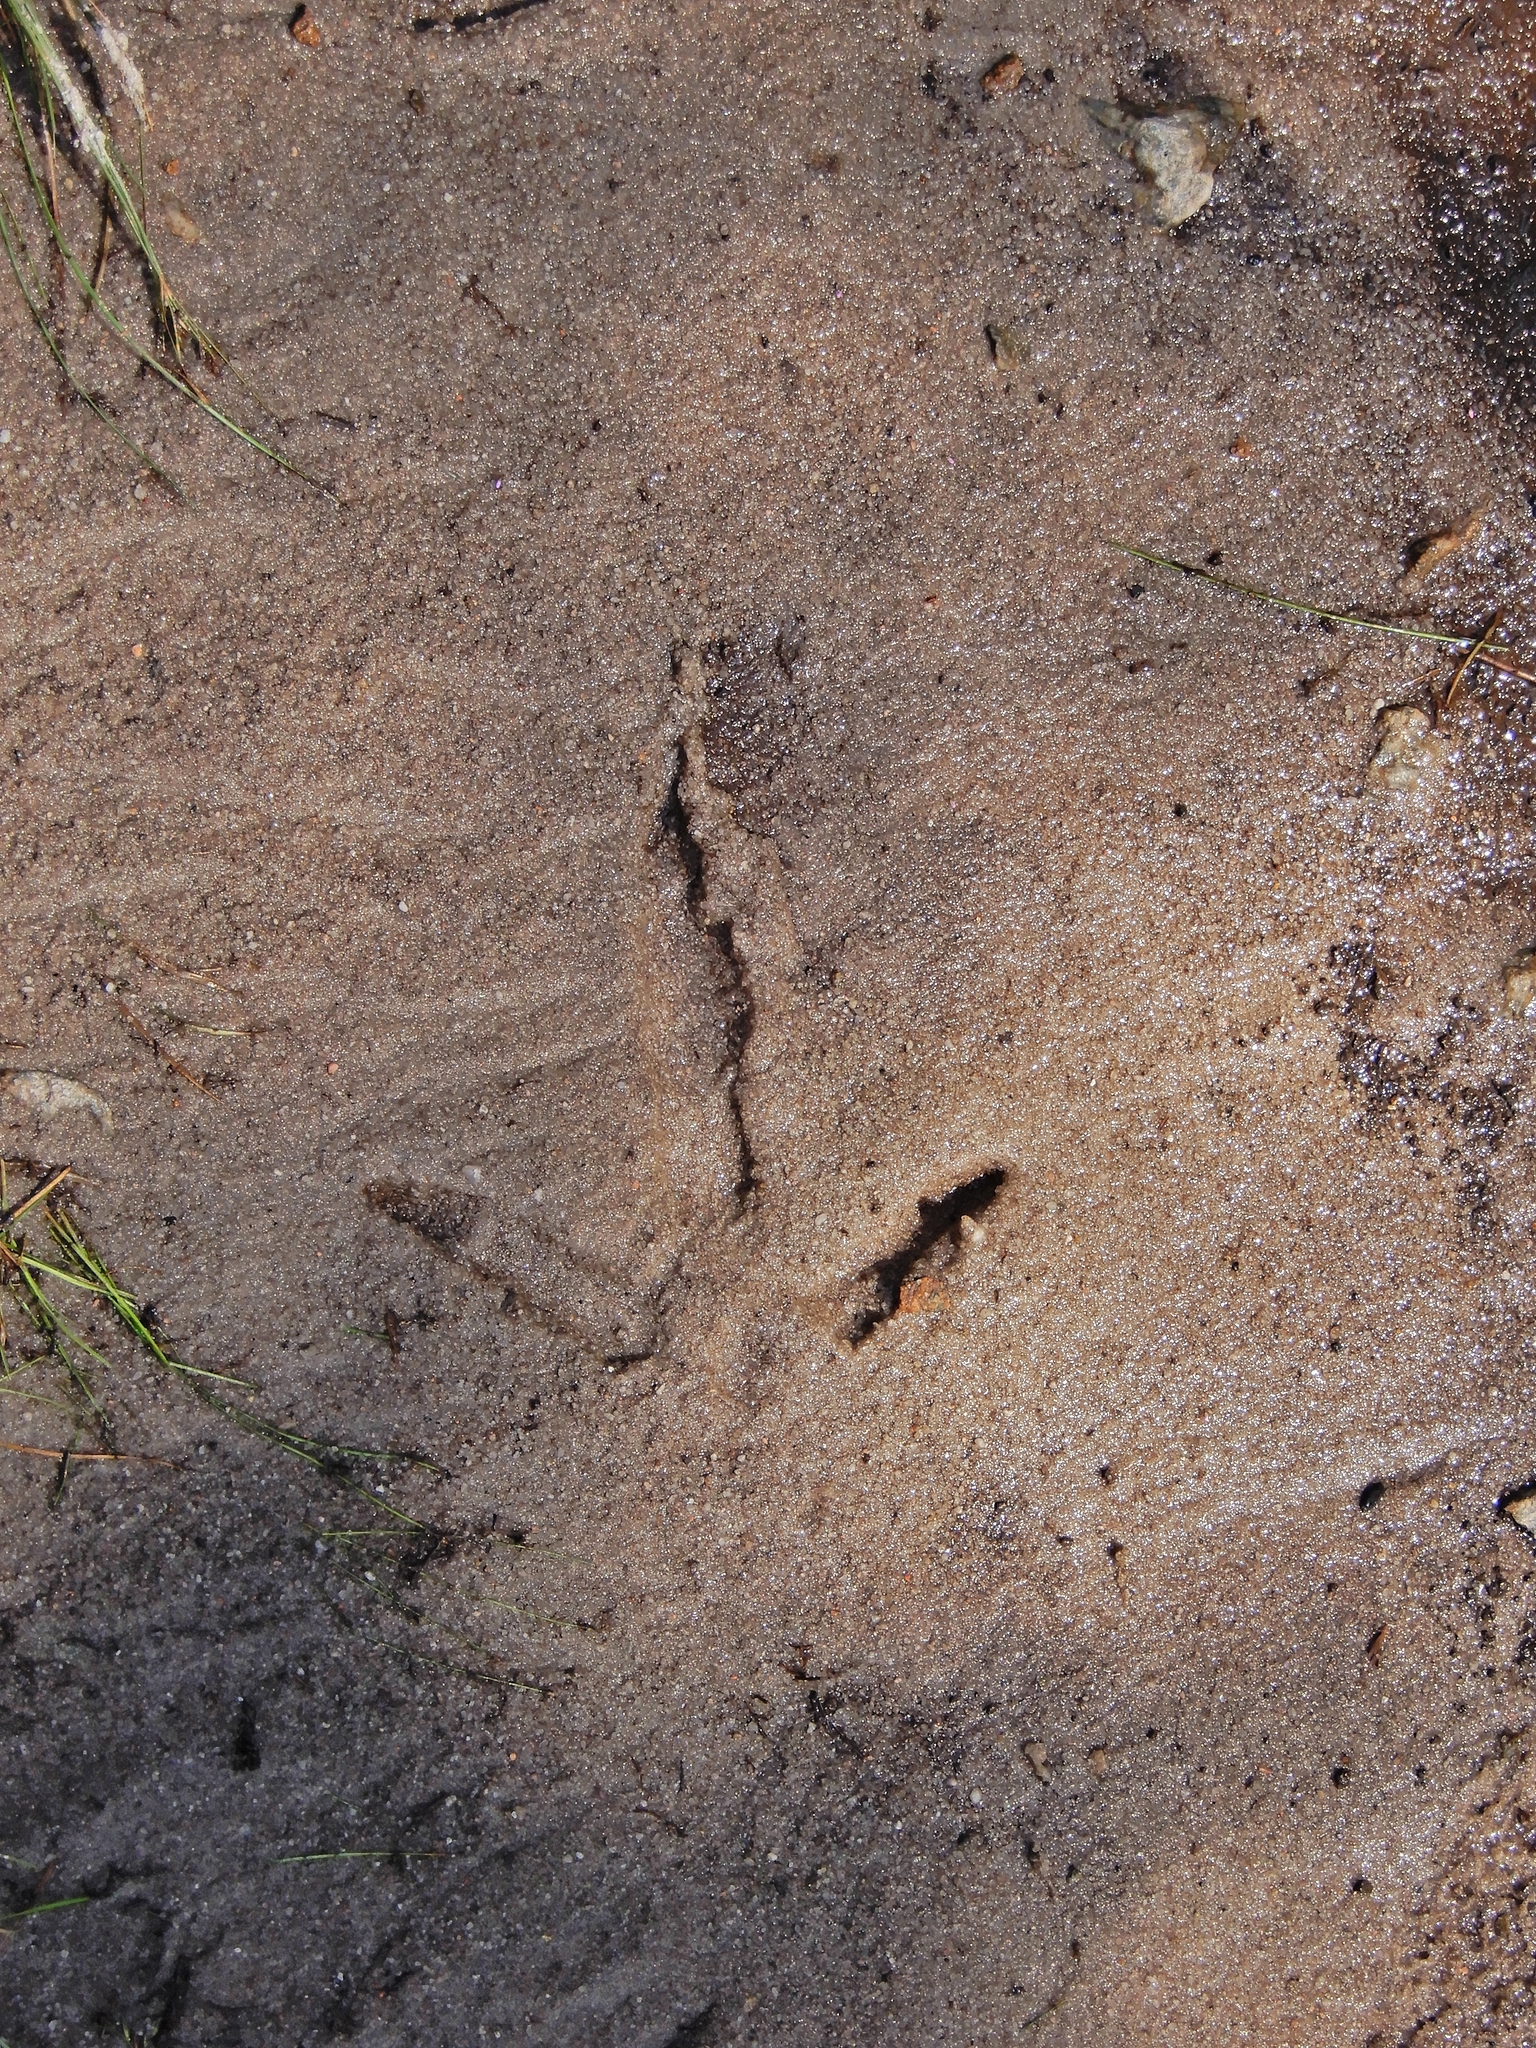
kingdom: Animalia
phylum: Chordata
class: Aves
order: Galliformes
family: Phasianidae
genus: Meleagris
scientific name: Meleagris gallopavo
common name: Wild turkey
